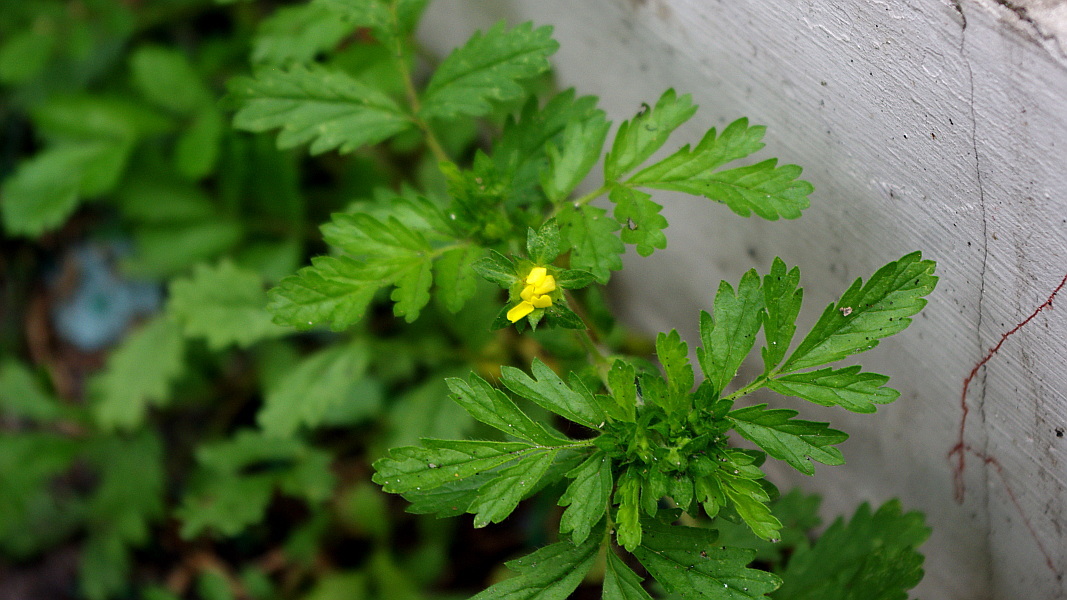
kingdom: Plantae
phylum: Tracheophyta
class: Magnoliopsida
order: Rosales
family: Rosaceae
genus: Potentilla
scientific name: Potentilla supina
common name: Prostrate cinquefoil
